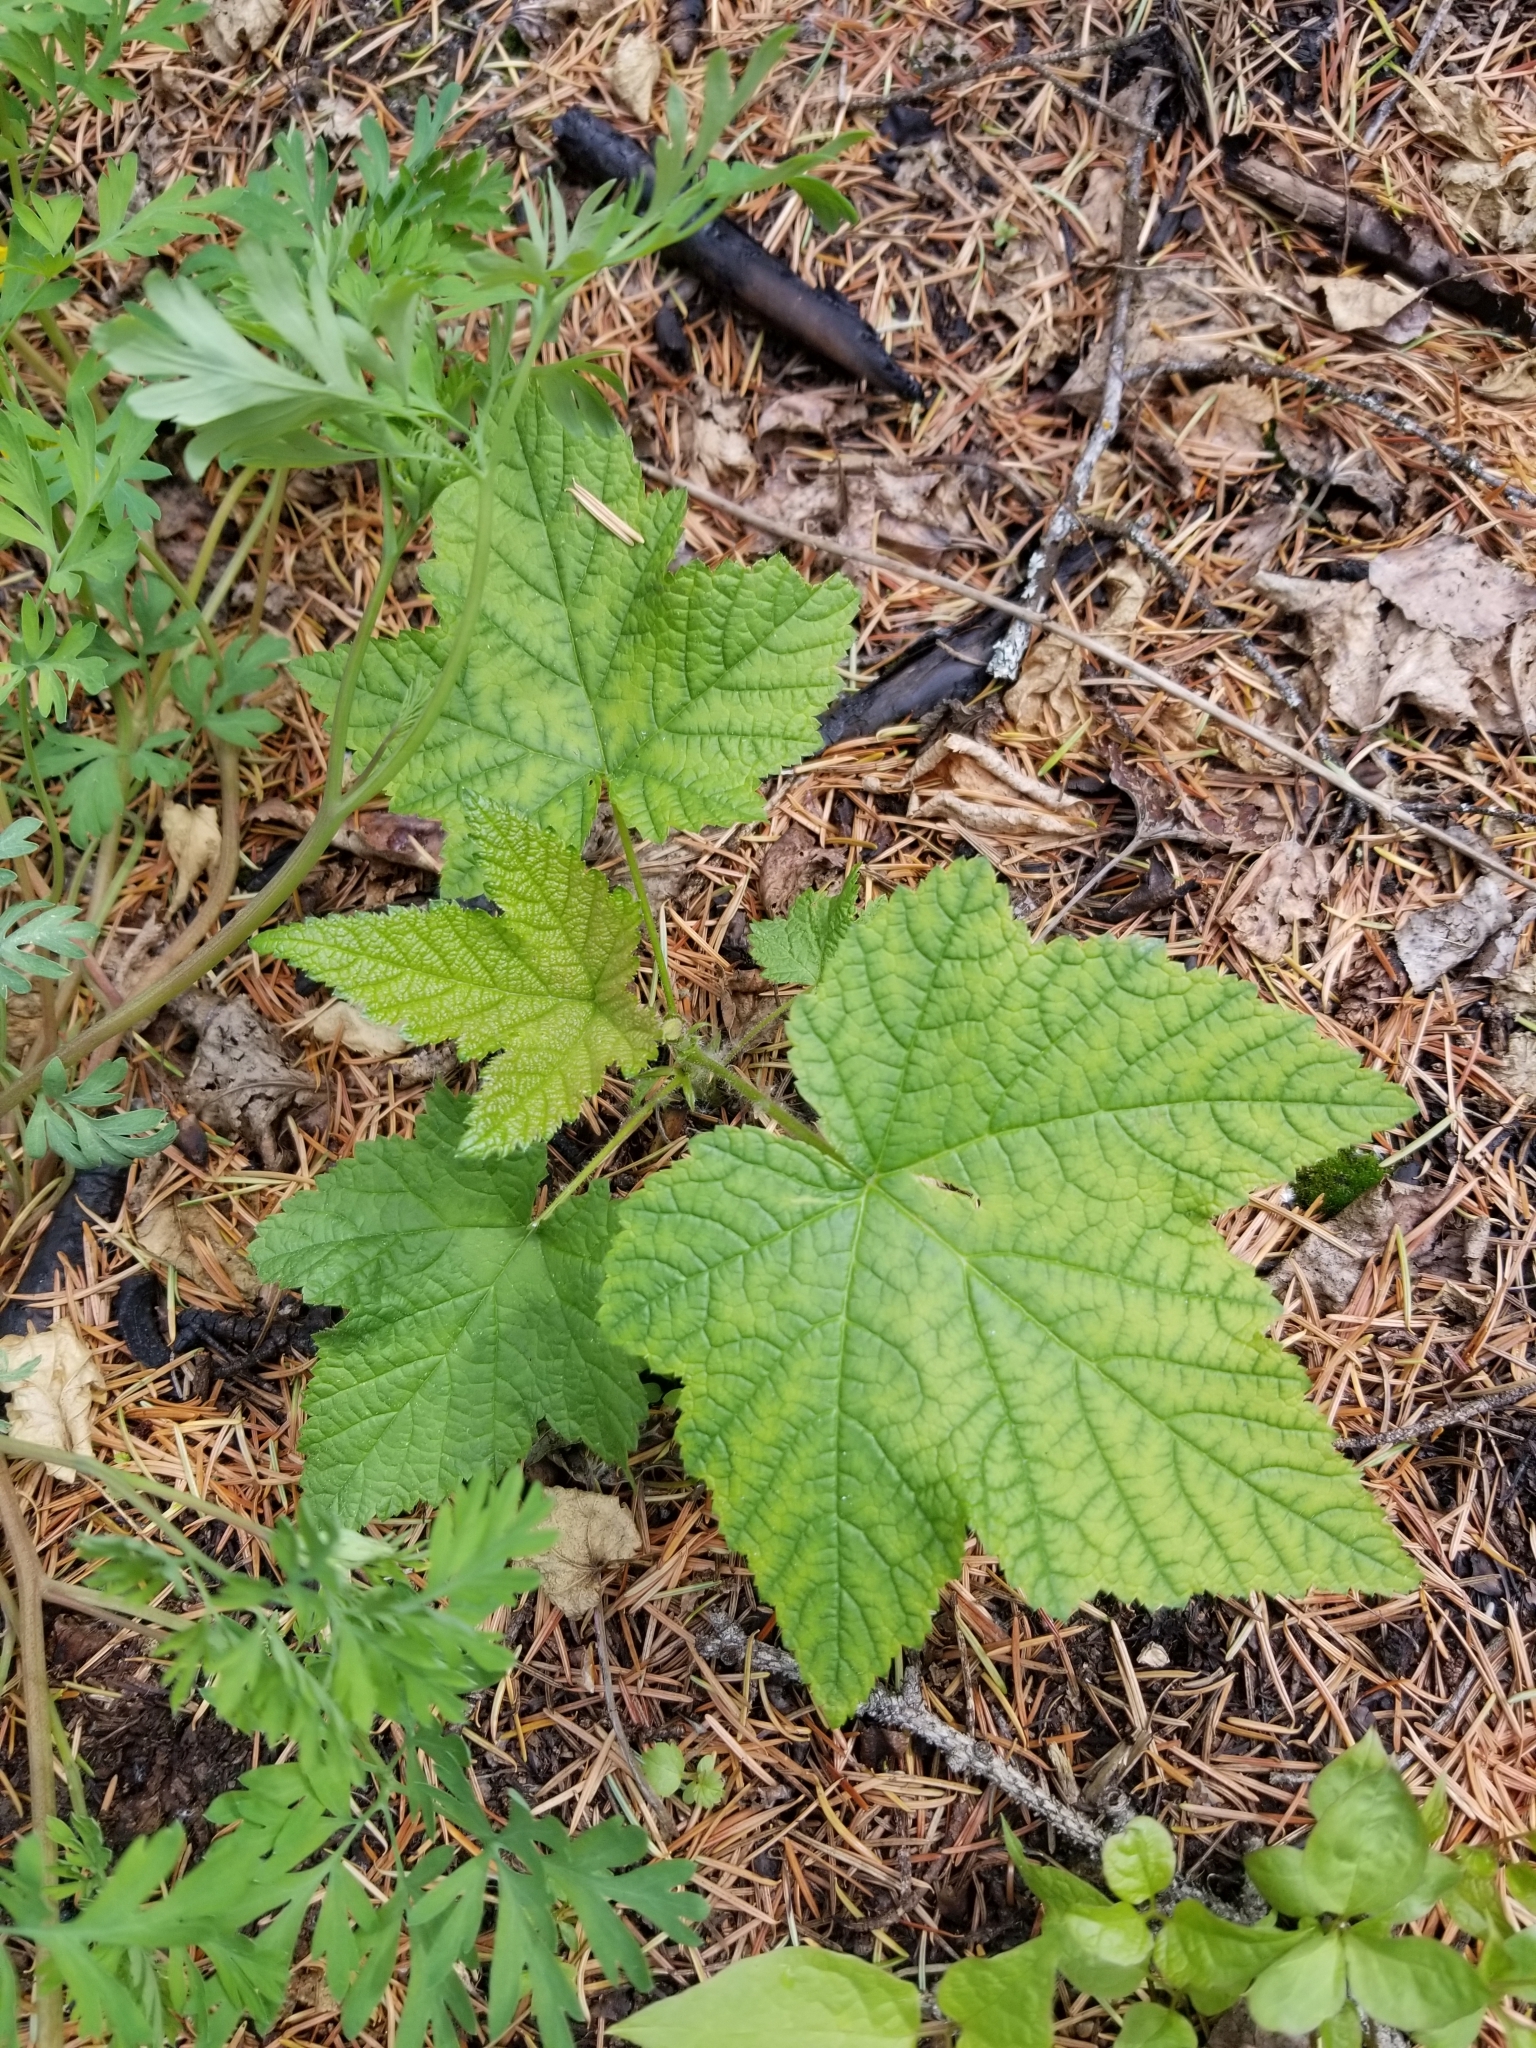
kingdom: Plantae
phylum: Tracheophyta
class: Magnoliopsida
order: Rosales
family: Rosaceae
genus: Rubus
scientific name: Rubus parviflorus
